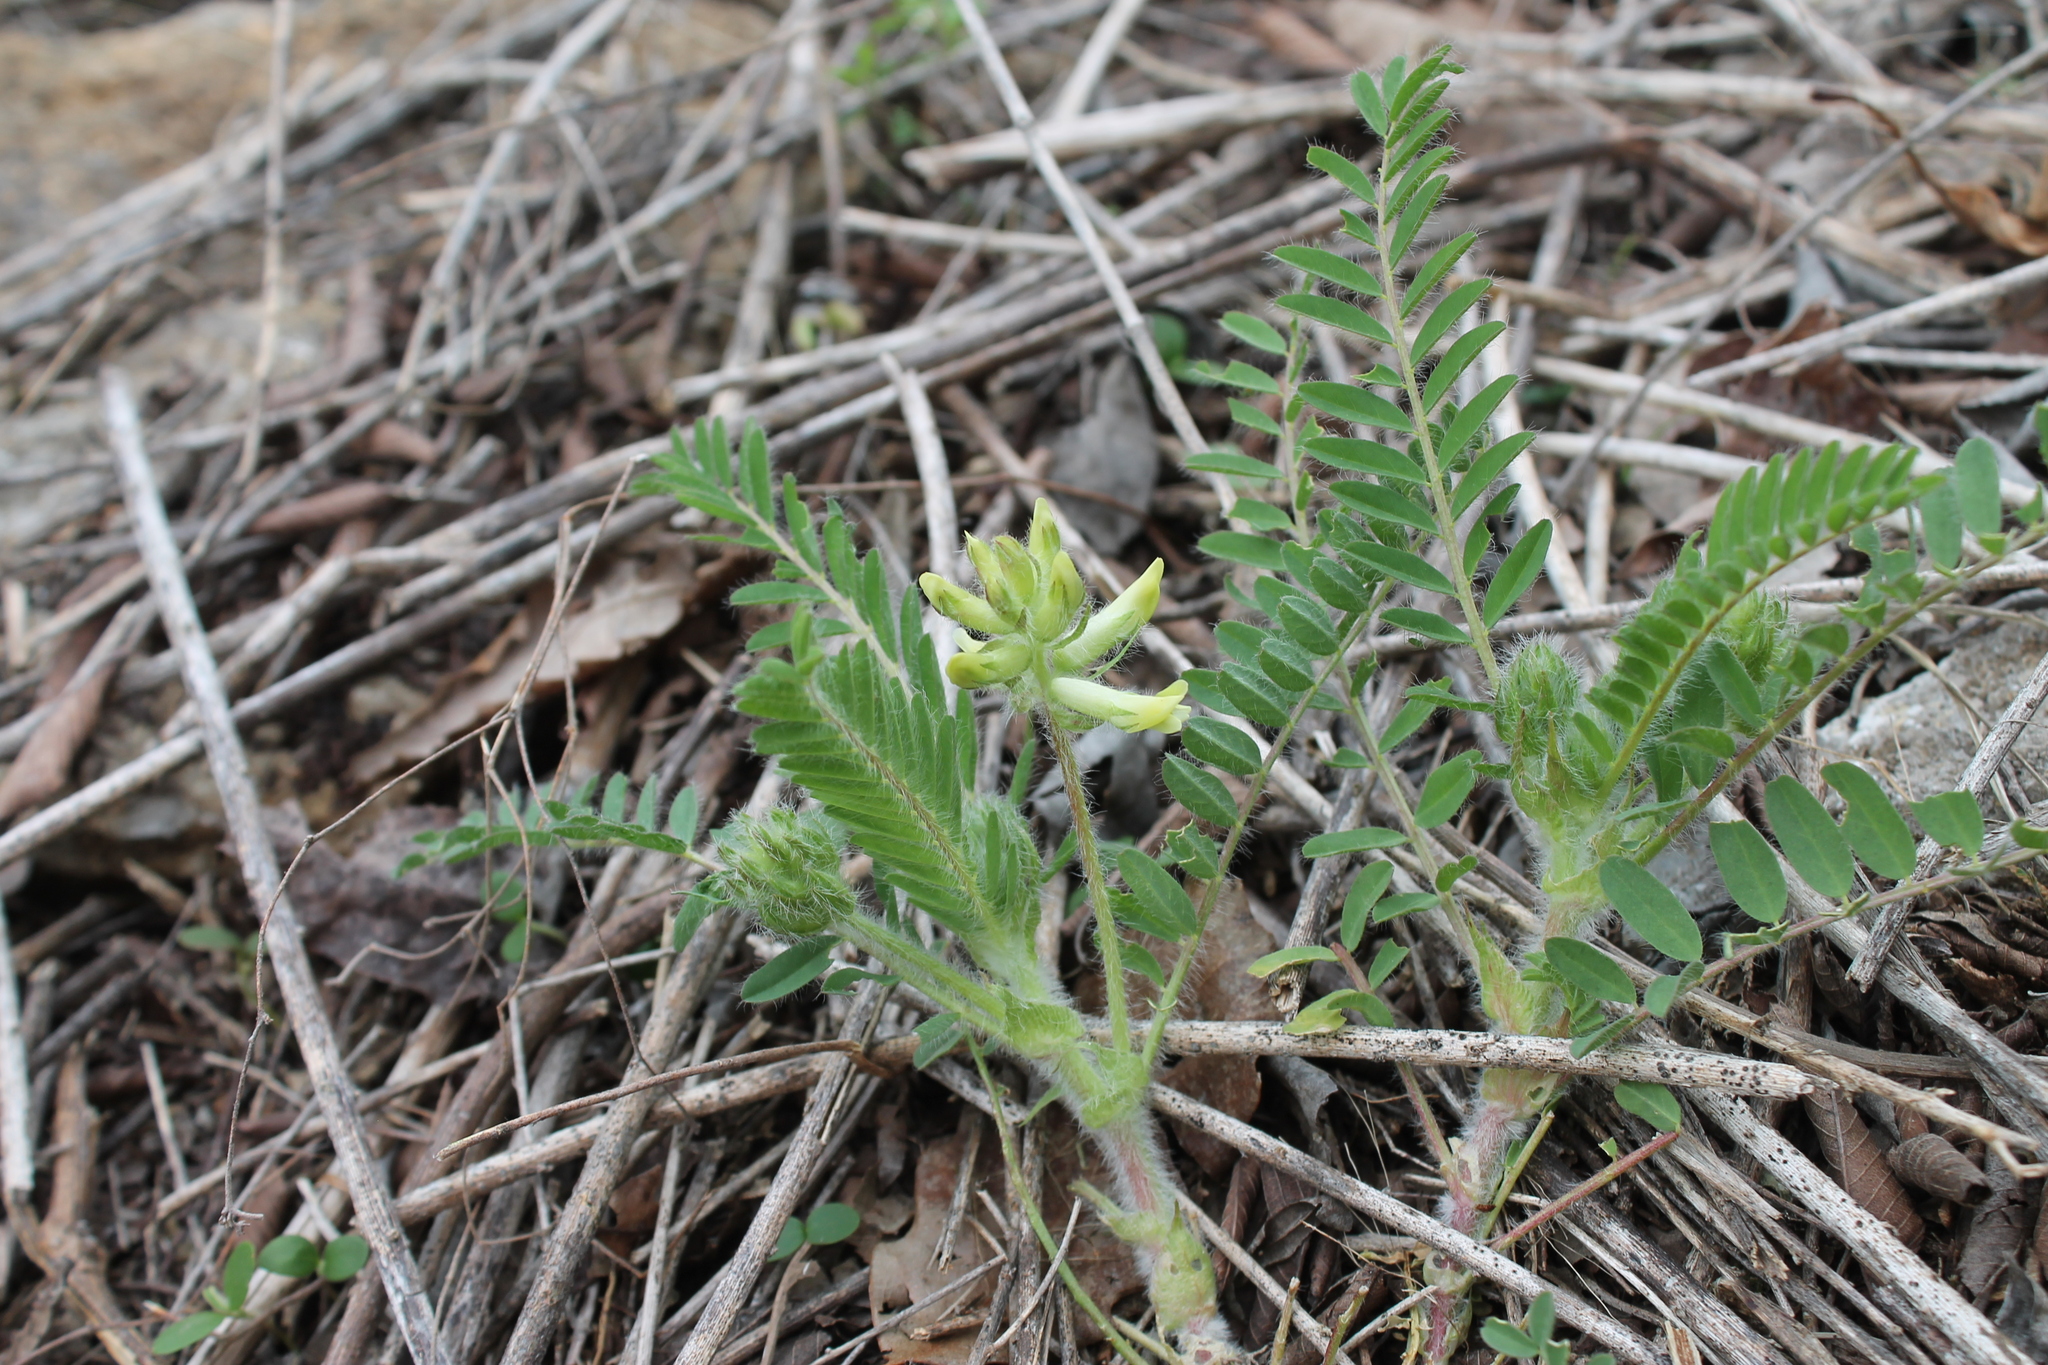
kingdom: Plantae
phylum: Tracheophyta
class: Magnoliopsida
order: Fabales
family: Fabaceae
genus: Astragalus
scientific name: Astragalus tennesseensis
